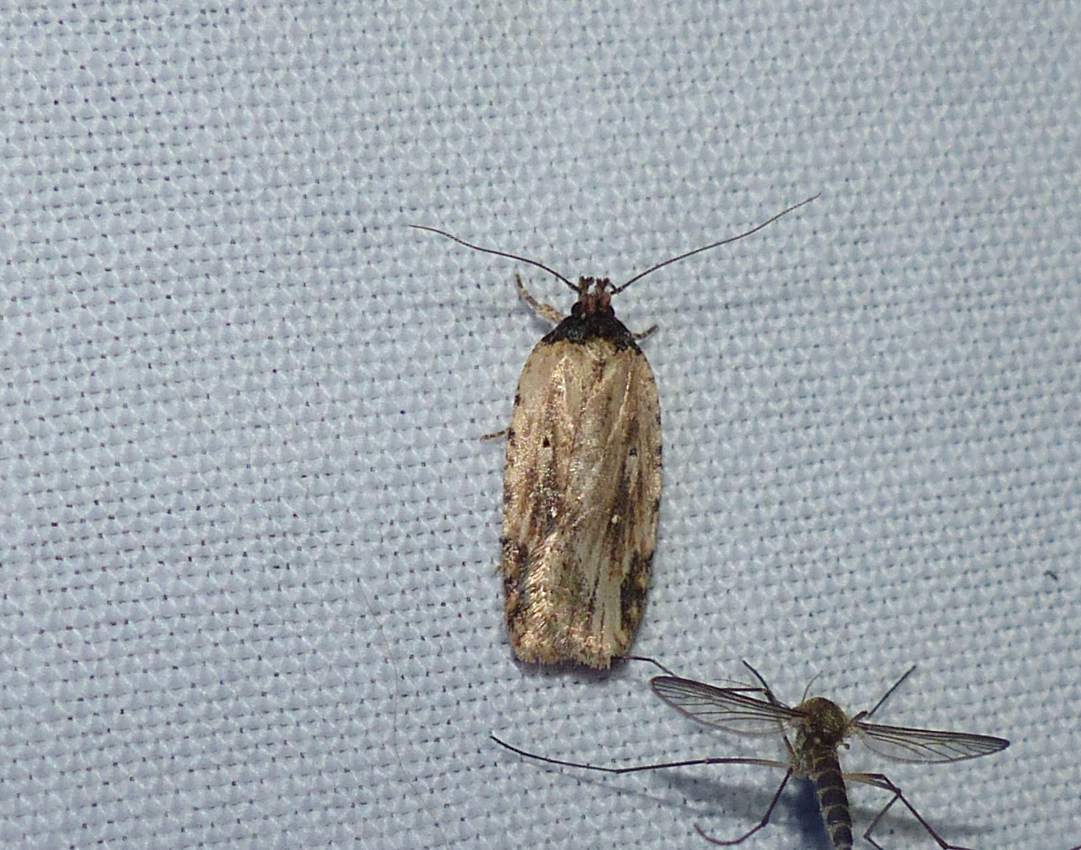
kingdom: Animalia
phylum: Arthropoda
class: Insecta
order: Lepidoptera
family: Depressariidae
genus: Agonopterix
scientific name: Agonopterix atrodorsella
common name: Beggartick leaffolder
